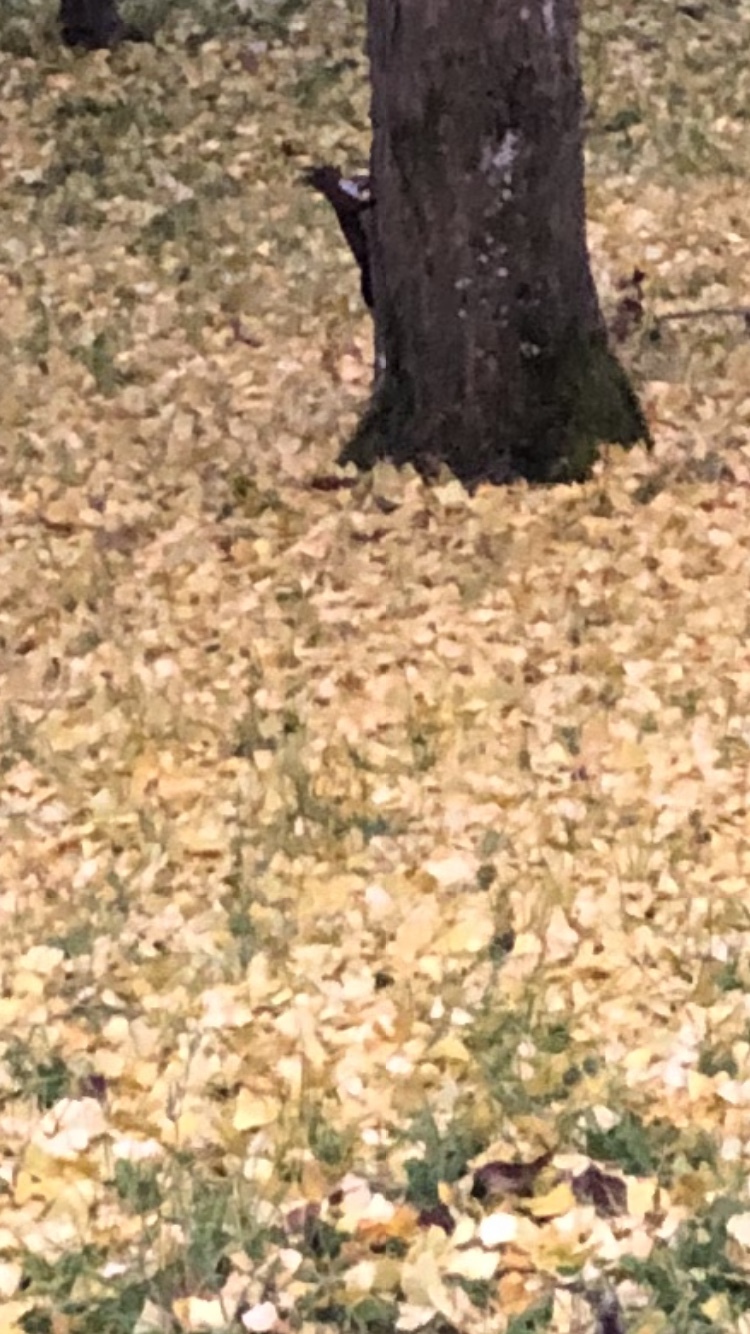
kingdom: Animalia
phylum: Chordata
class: Mammalia
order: Rodentia
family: Sciuridae
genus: Sciurus
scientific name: Sciurus vulgaris
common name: Eurasian red squirrel
